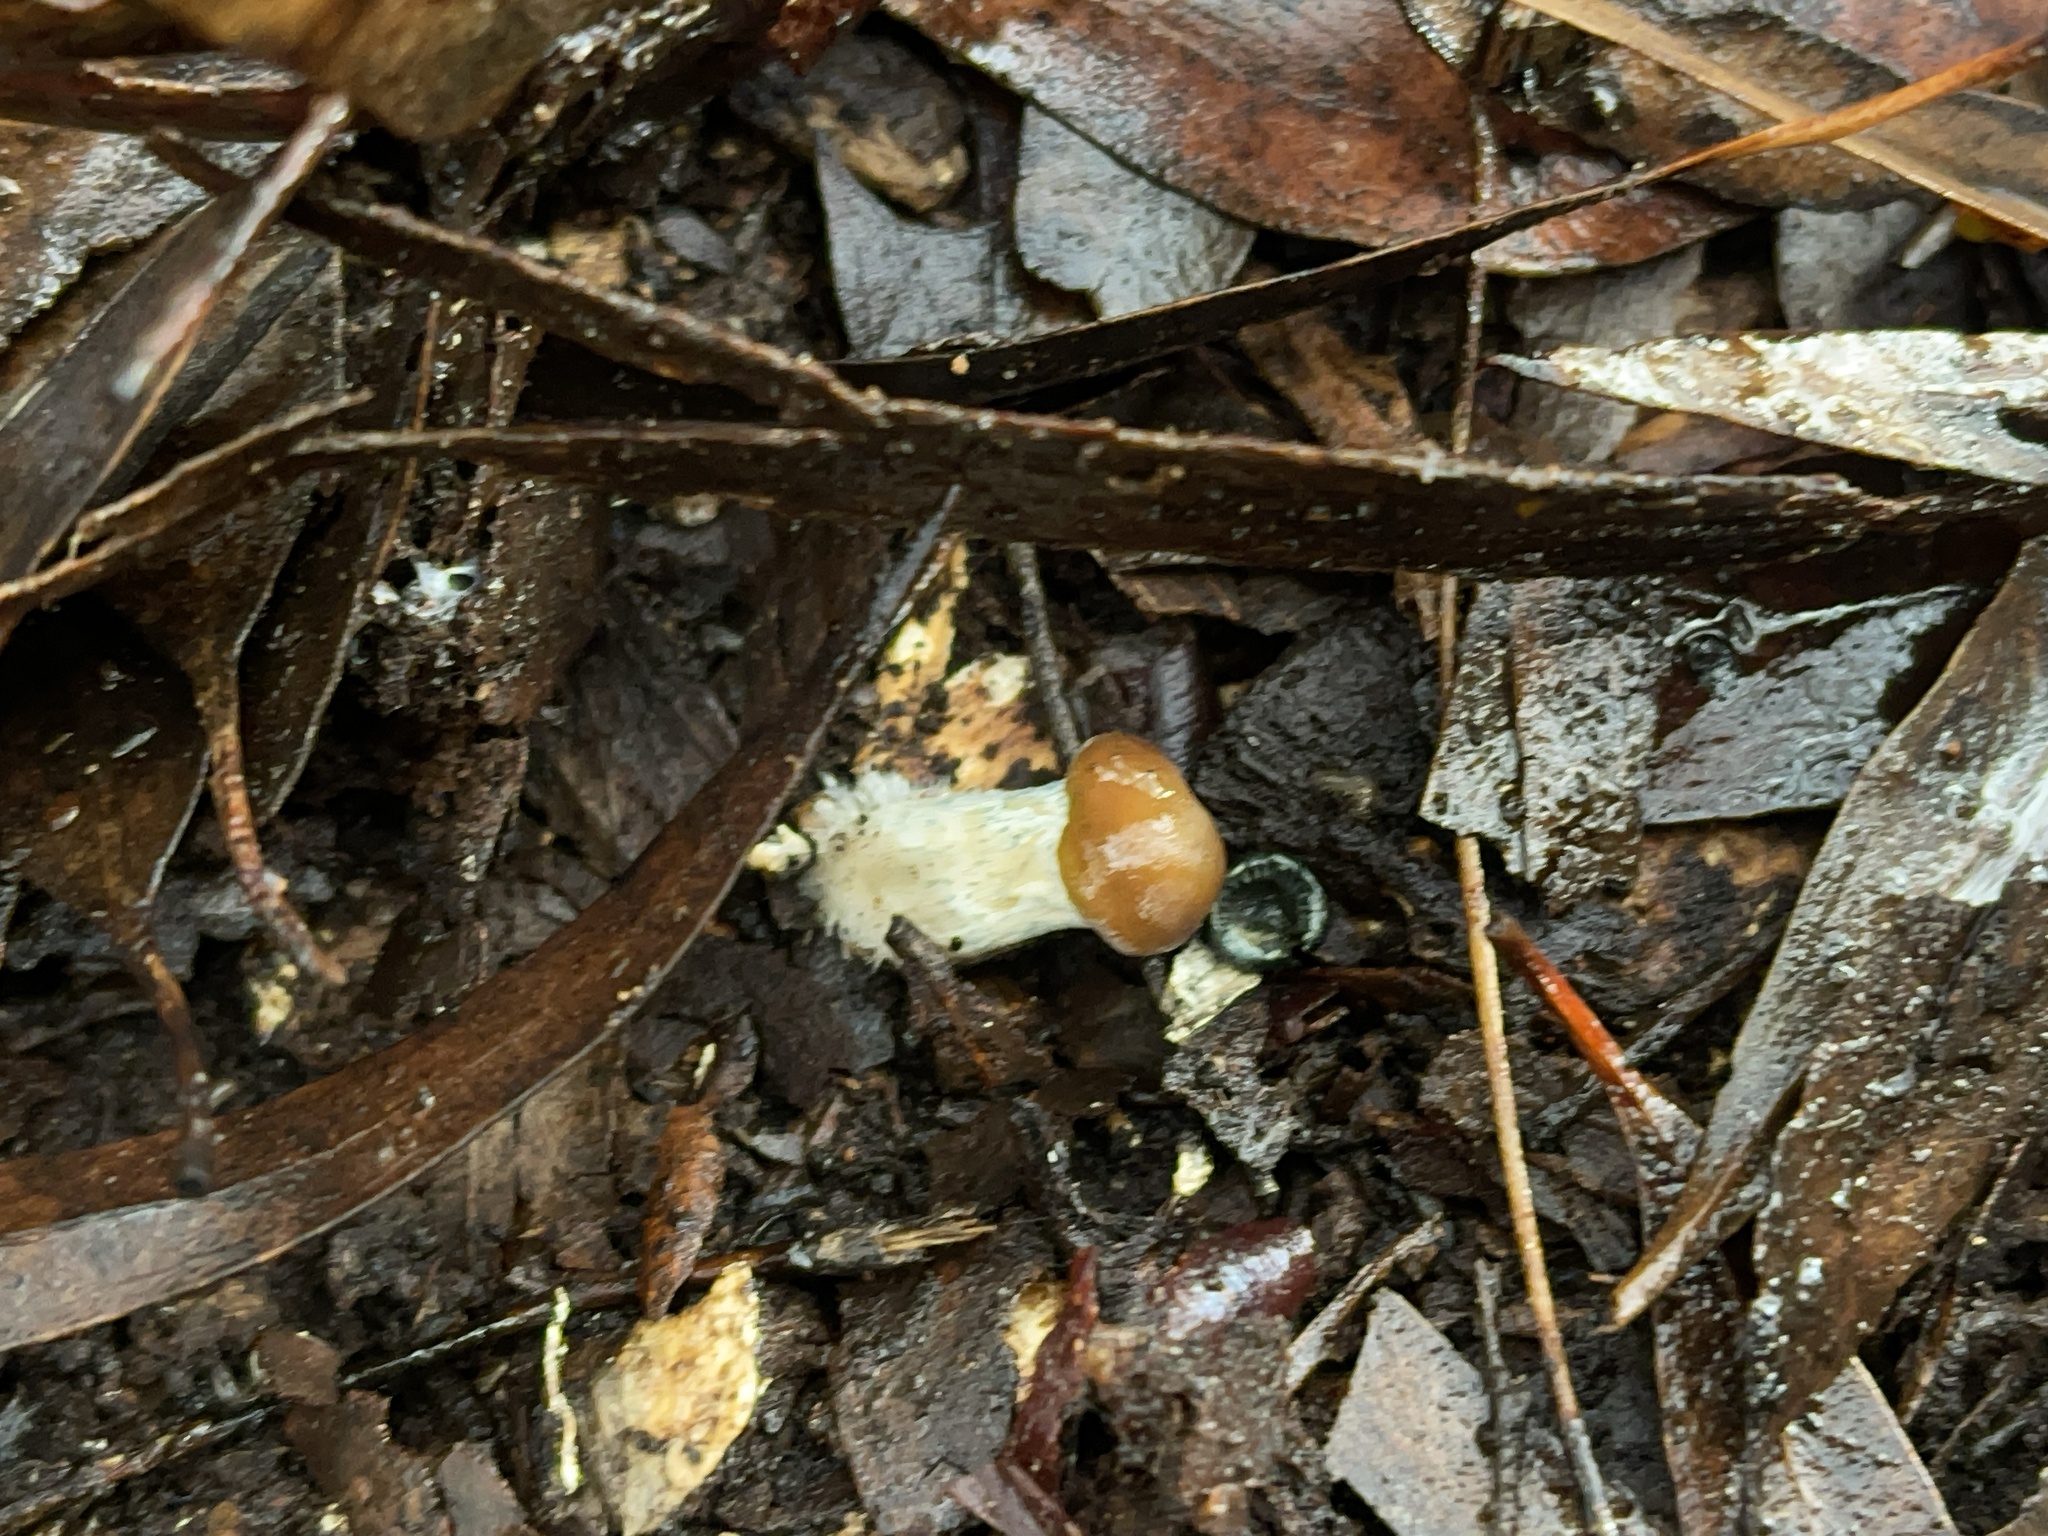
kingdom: Fungi
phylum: Basidiomycota
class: Agaricomycetes
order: Agaricales
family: Hymenogastraceae
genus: Psilocybe
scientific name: Psilocybe subaeruginosa
